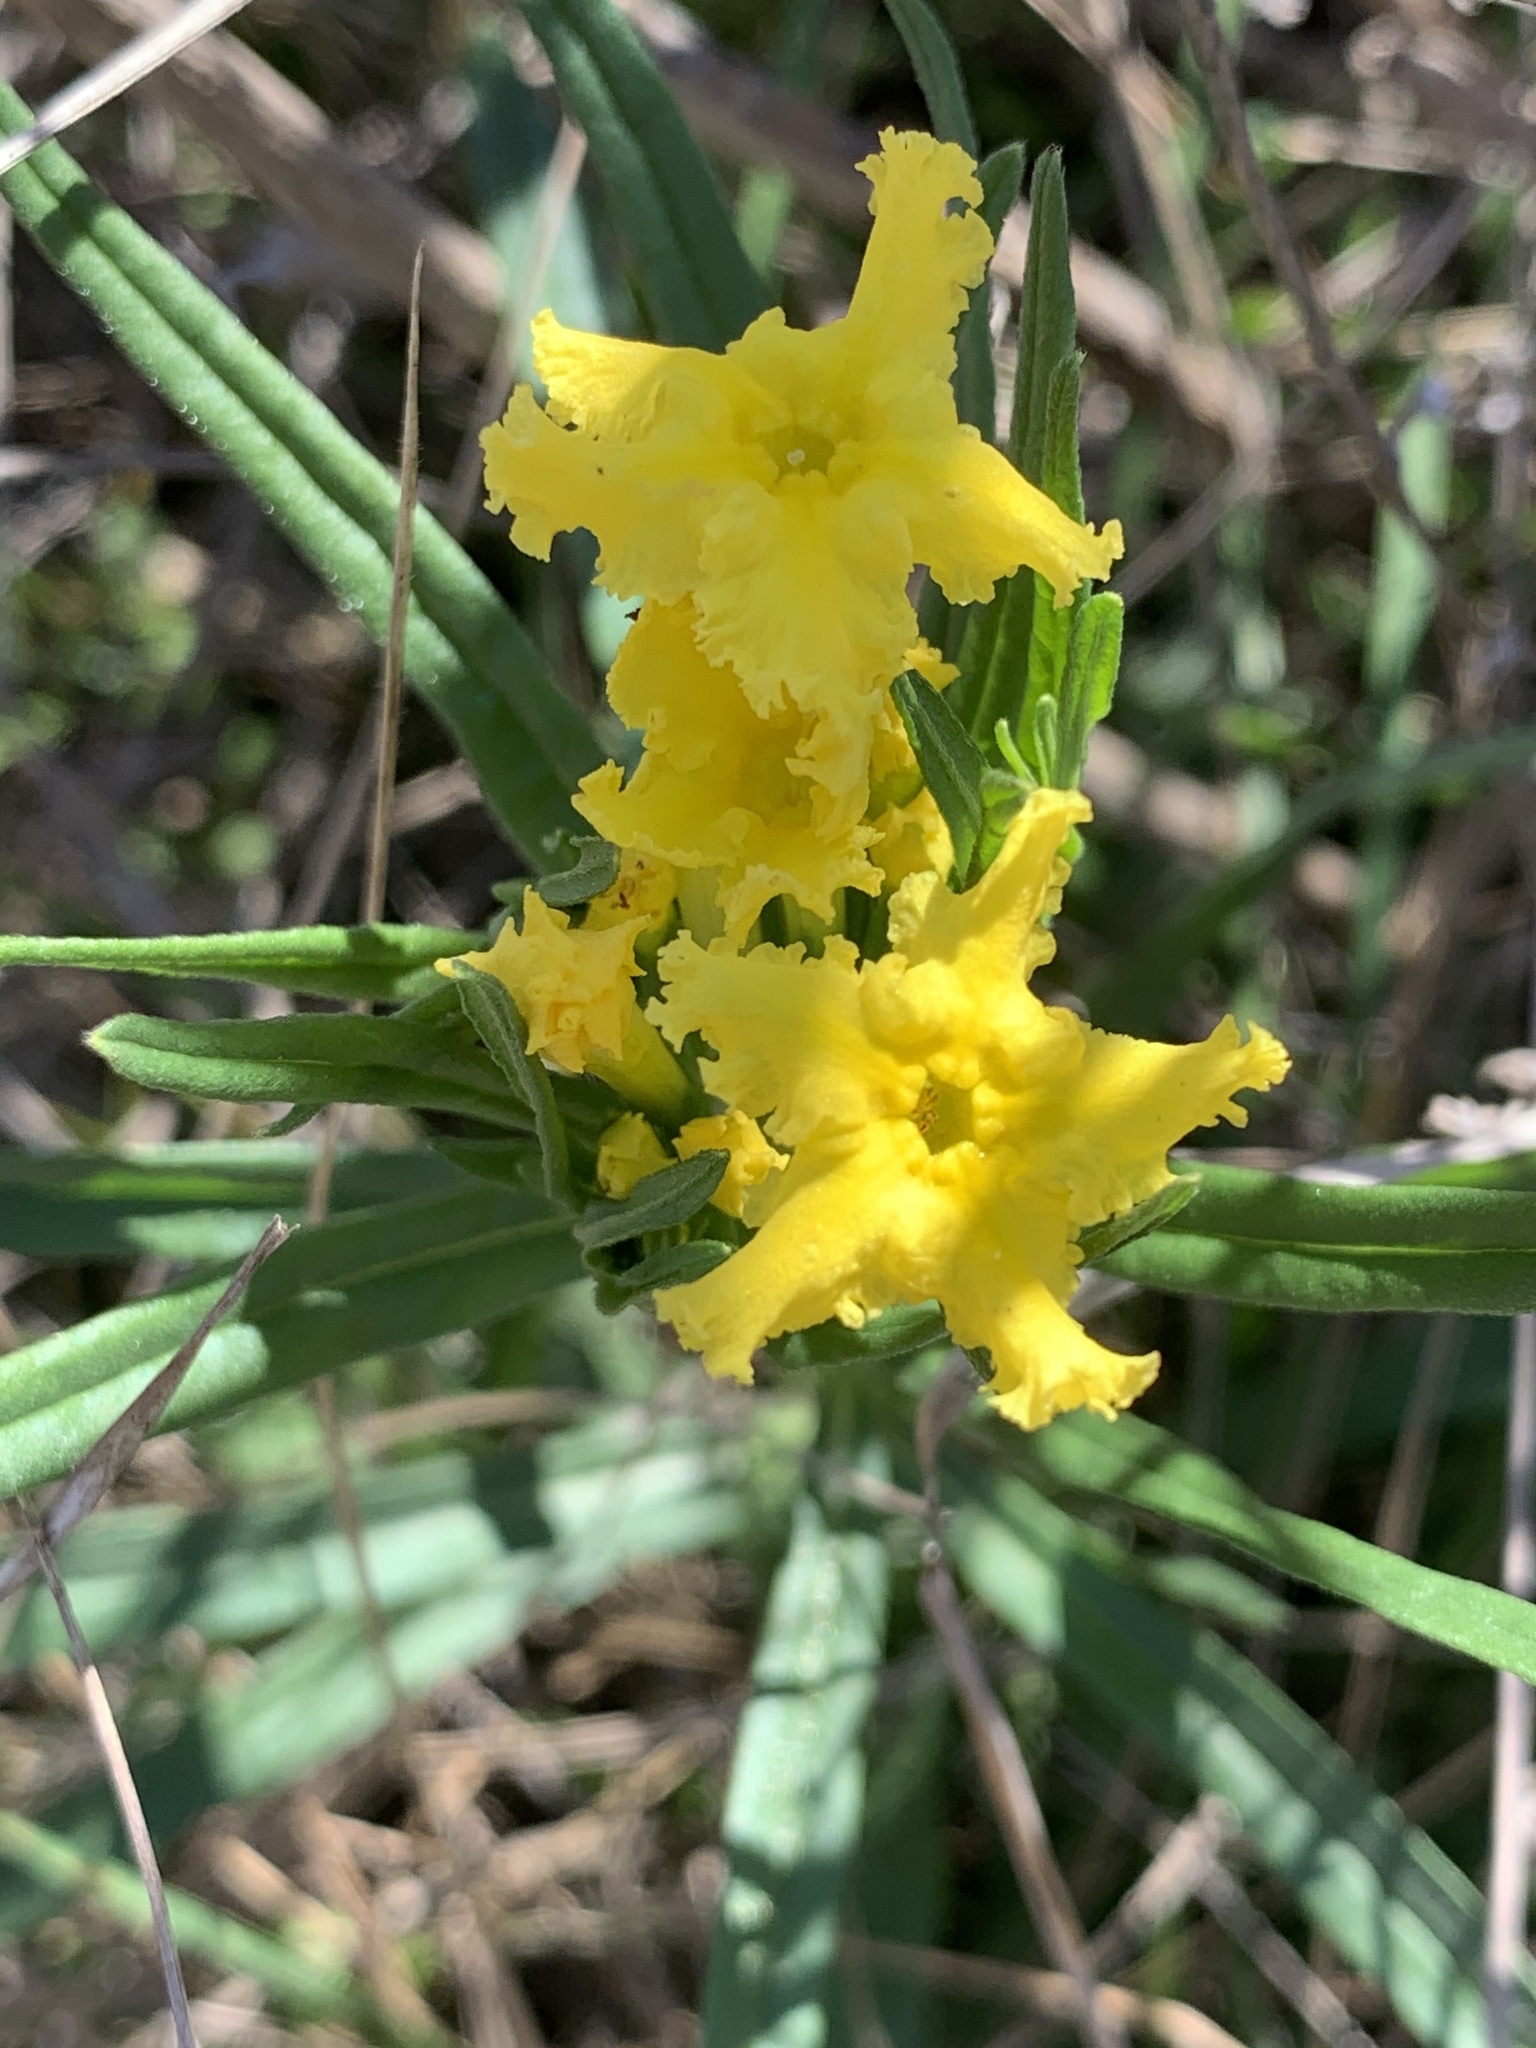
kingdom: Plantae
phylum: Tracheophyta
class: Magnoliopsida
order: Boraginales
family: Boraginaceae
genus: Lithospermum
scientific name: Lithospermum incisum
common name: Fringed gromwell
